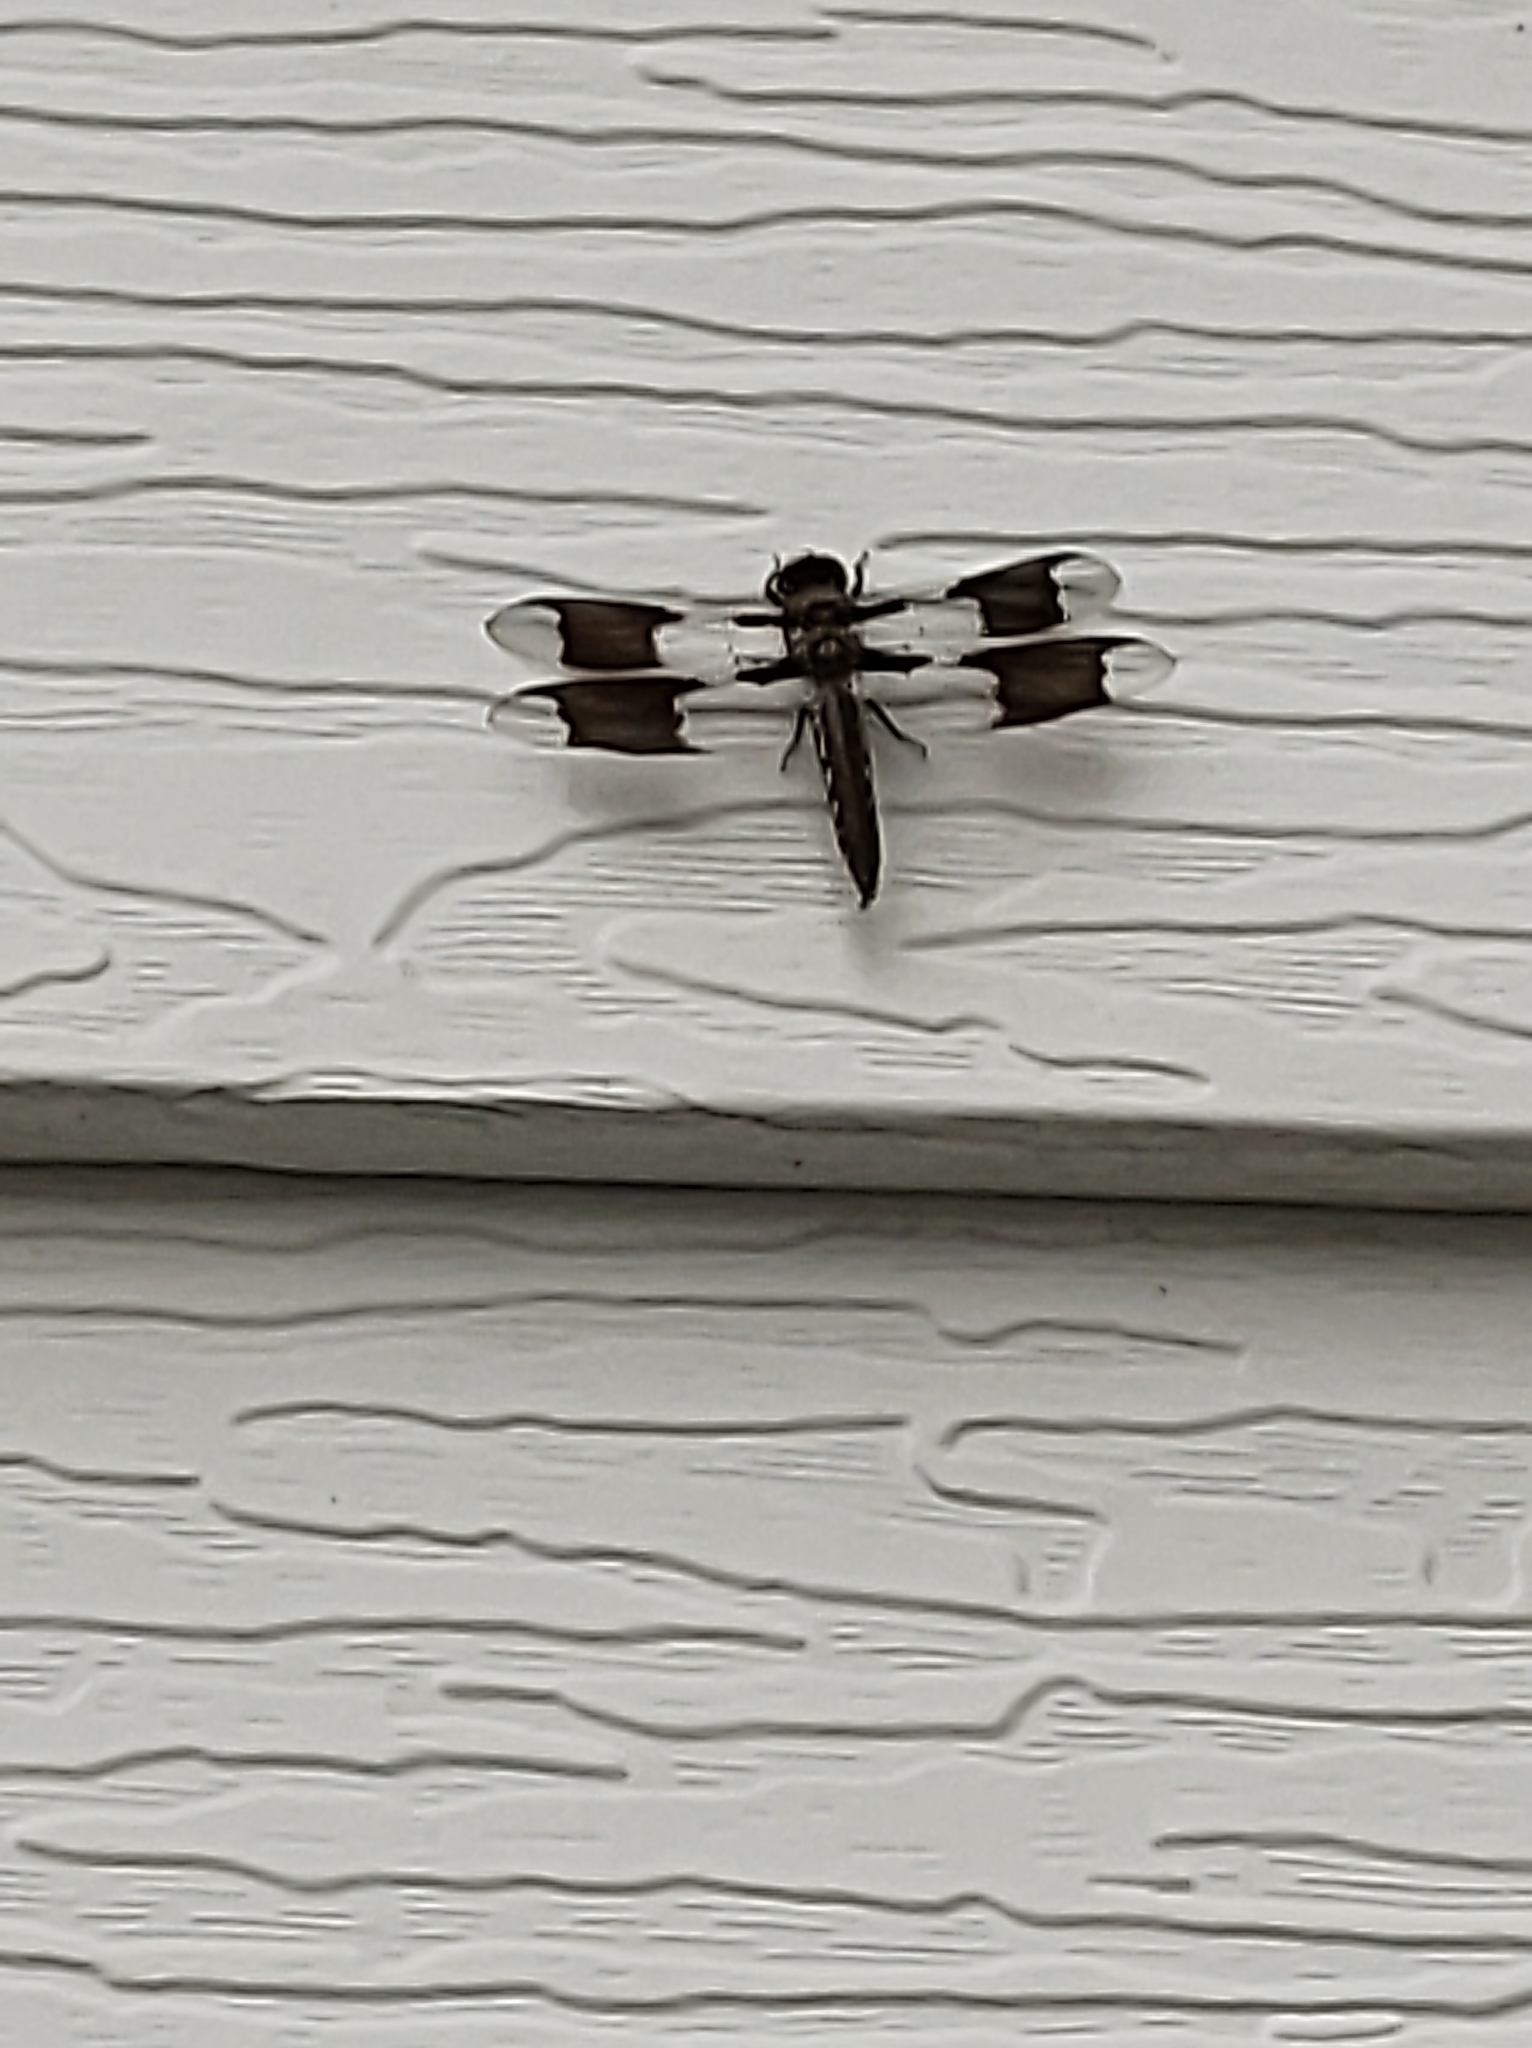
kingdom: Animalia
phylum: Arthropoda
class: Insecta
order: Odonata
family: Libellulidae
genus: Plathemis
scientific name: Plathemis lydia
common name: Common whitetail
